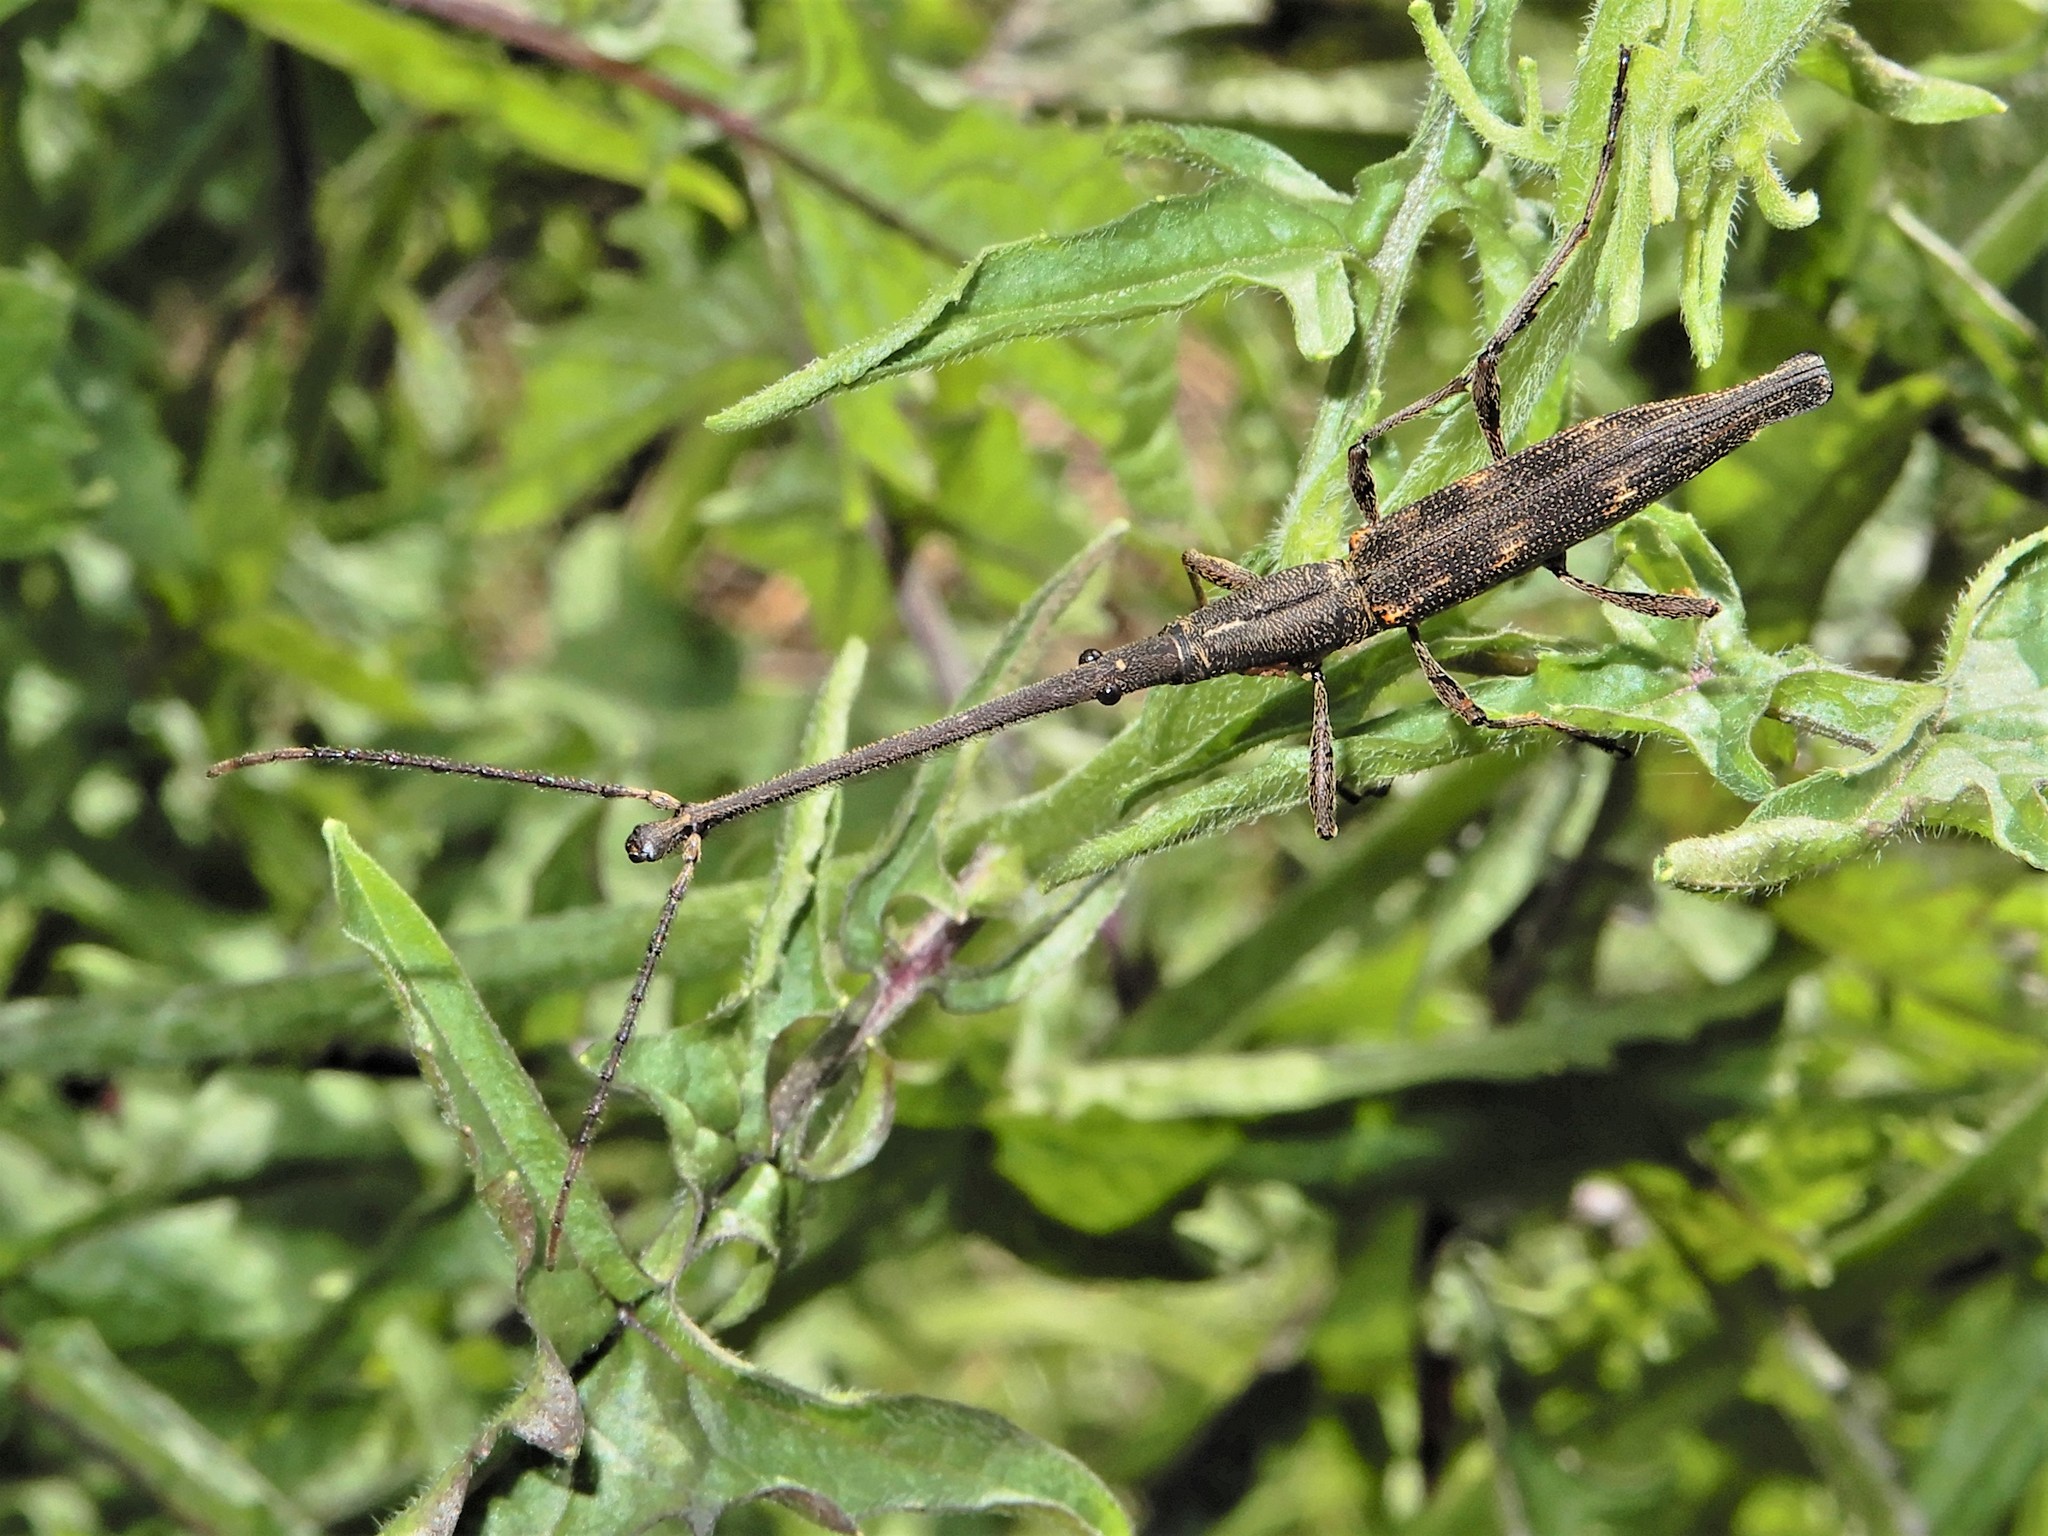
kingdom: Animalia
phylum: Arthropoda
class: Insecta
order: Coleoptera
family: Brentidae
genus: Lasiorhynchus
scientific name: Lasiorhynchus barbicornis
